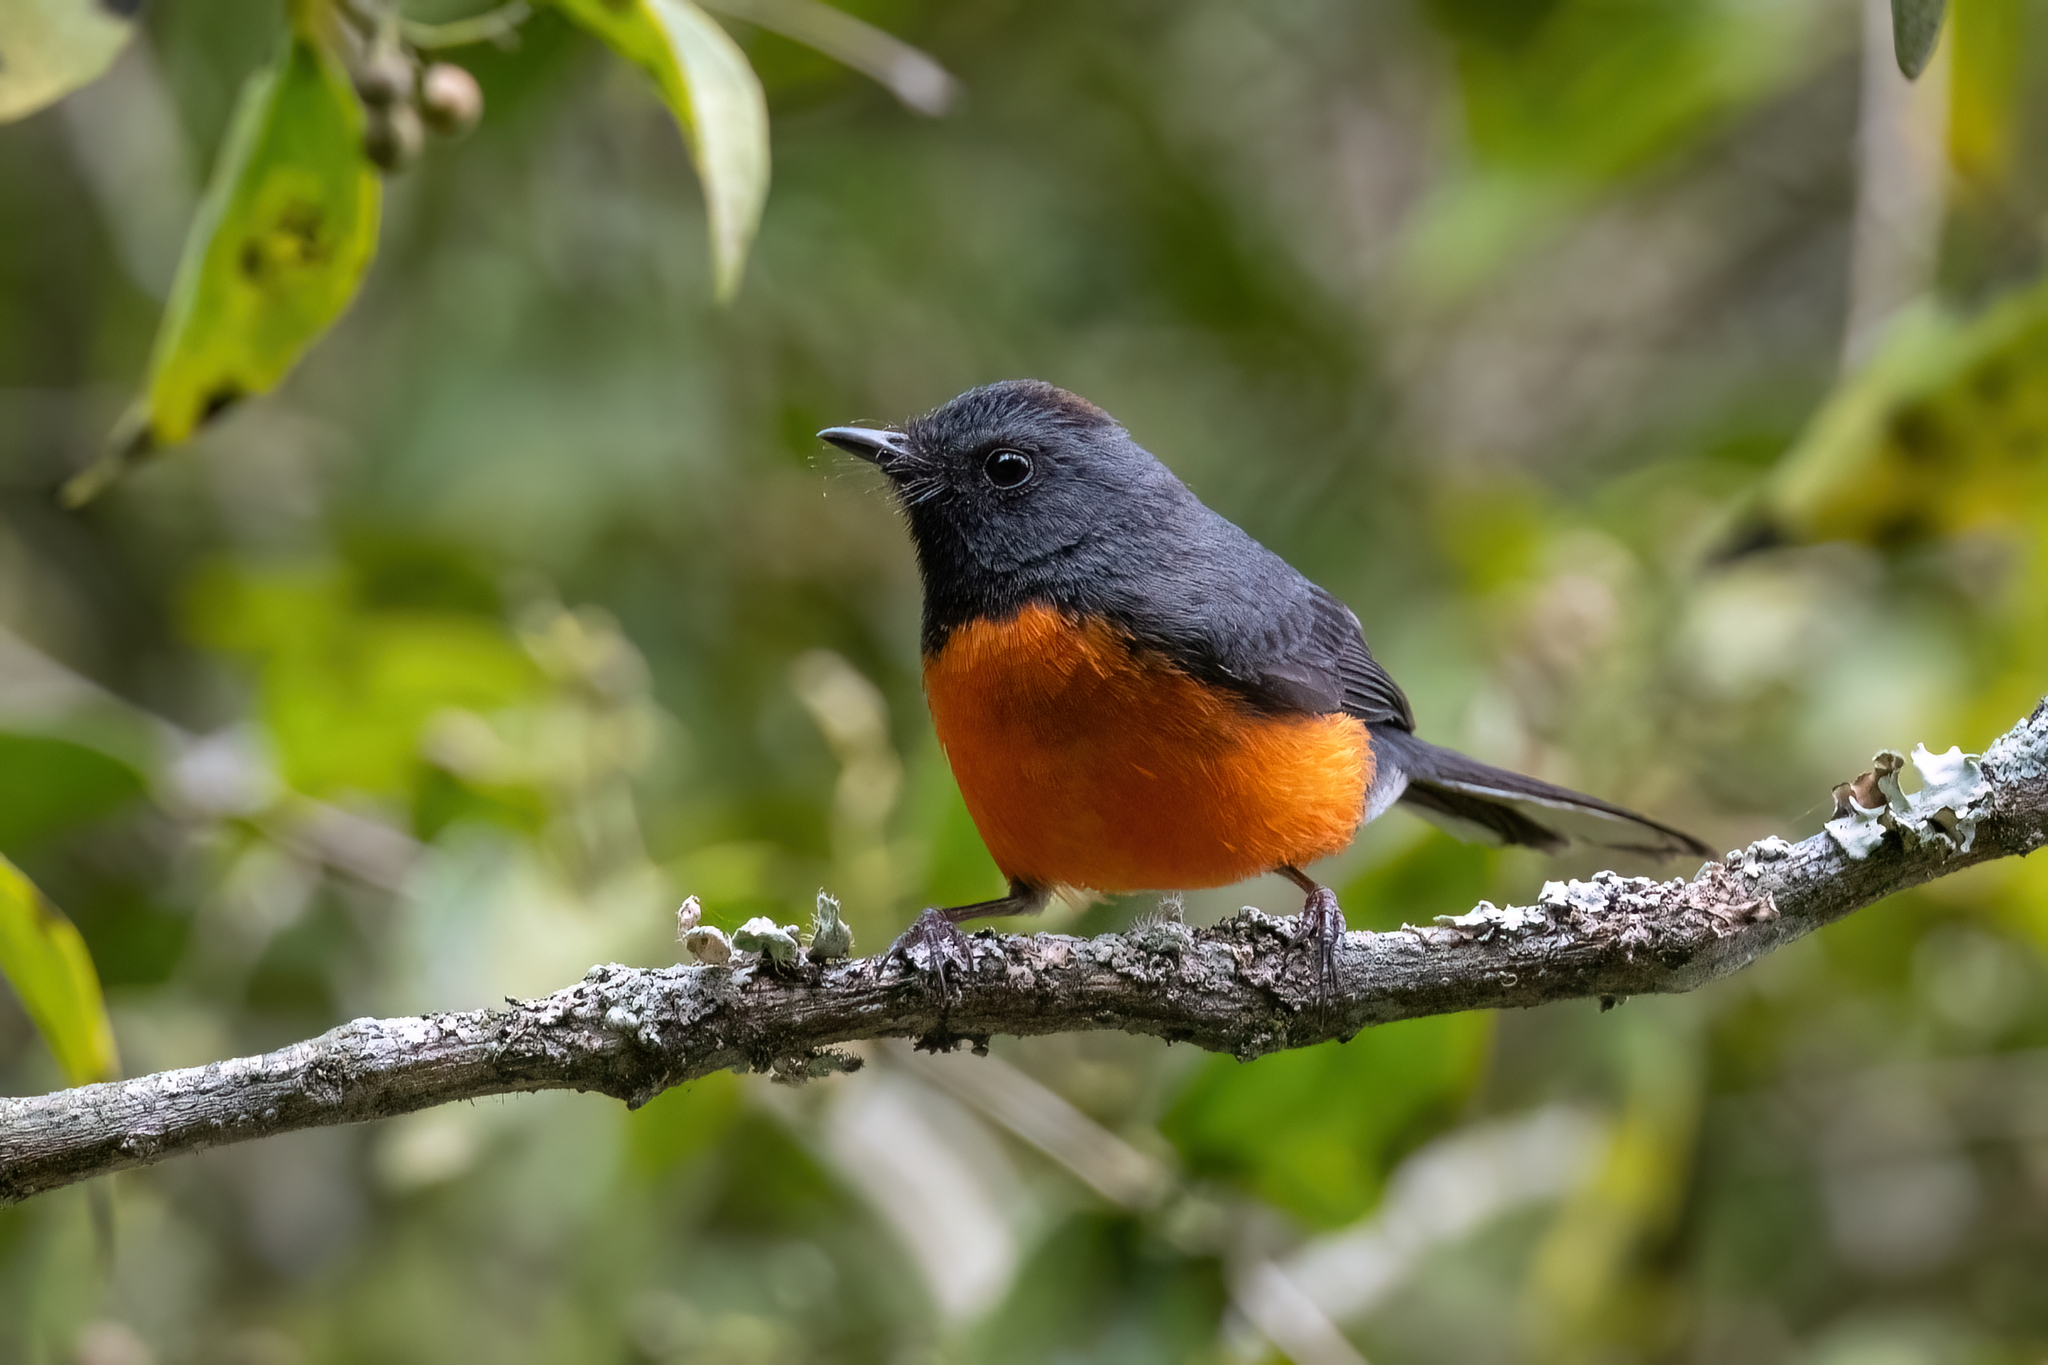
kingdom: Animalia
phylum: Chordata
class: Aves
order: Passeriformes
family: Parulidae
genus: Myioborus
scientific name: Myioborus miniatus
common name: Slate-throated redstart
